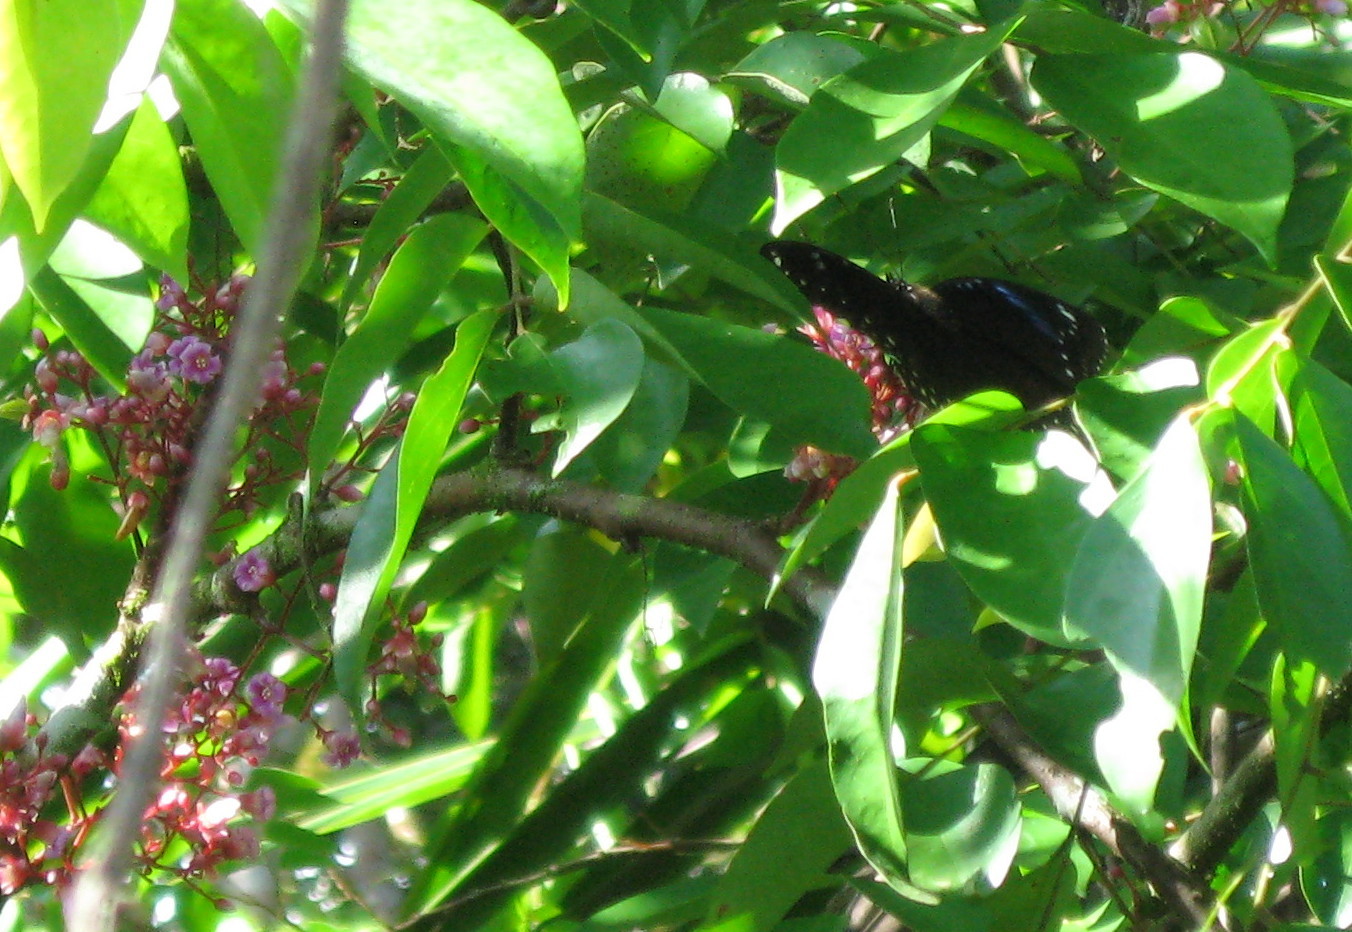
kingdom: Animalia
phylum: Arthropoda
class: Insecta
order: Lepidoptera
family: Nymphalidae
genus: Hypolimnas
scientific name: Hypolimnas bolina
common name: Great eggfly
